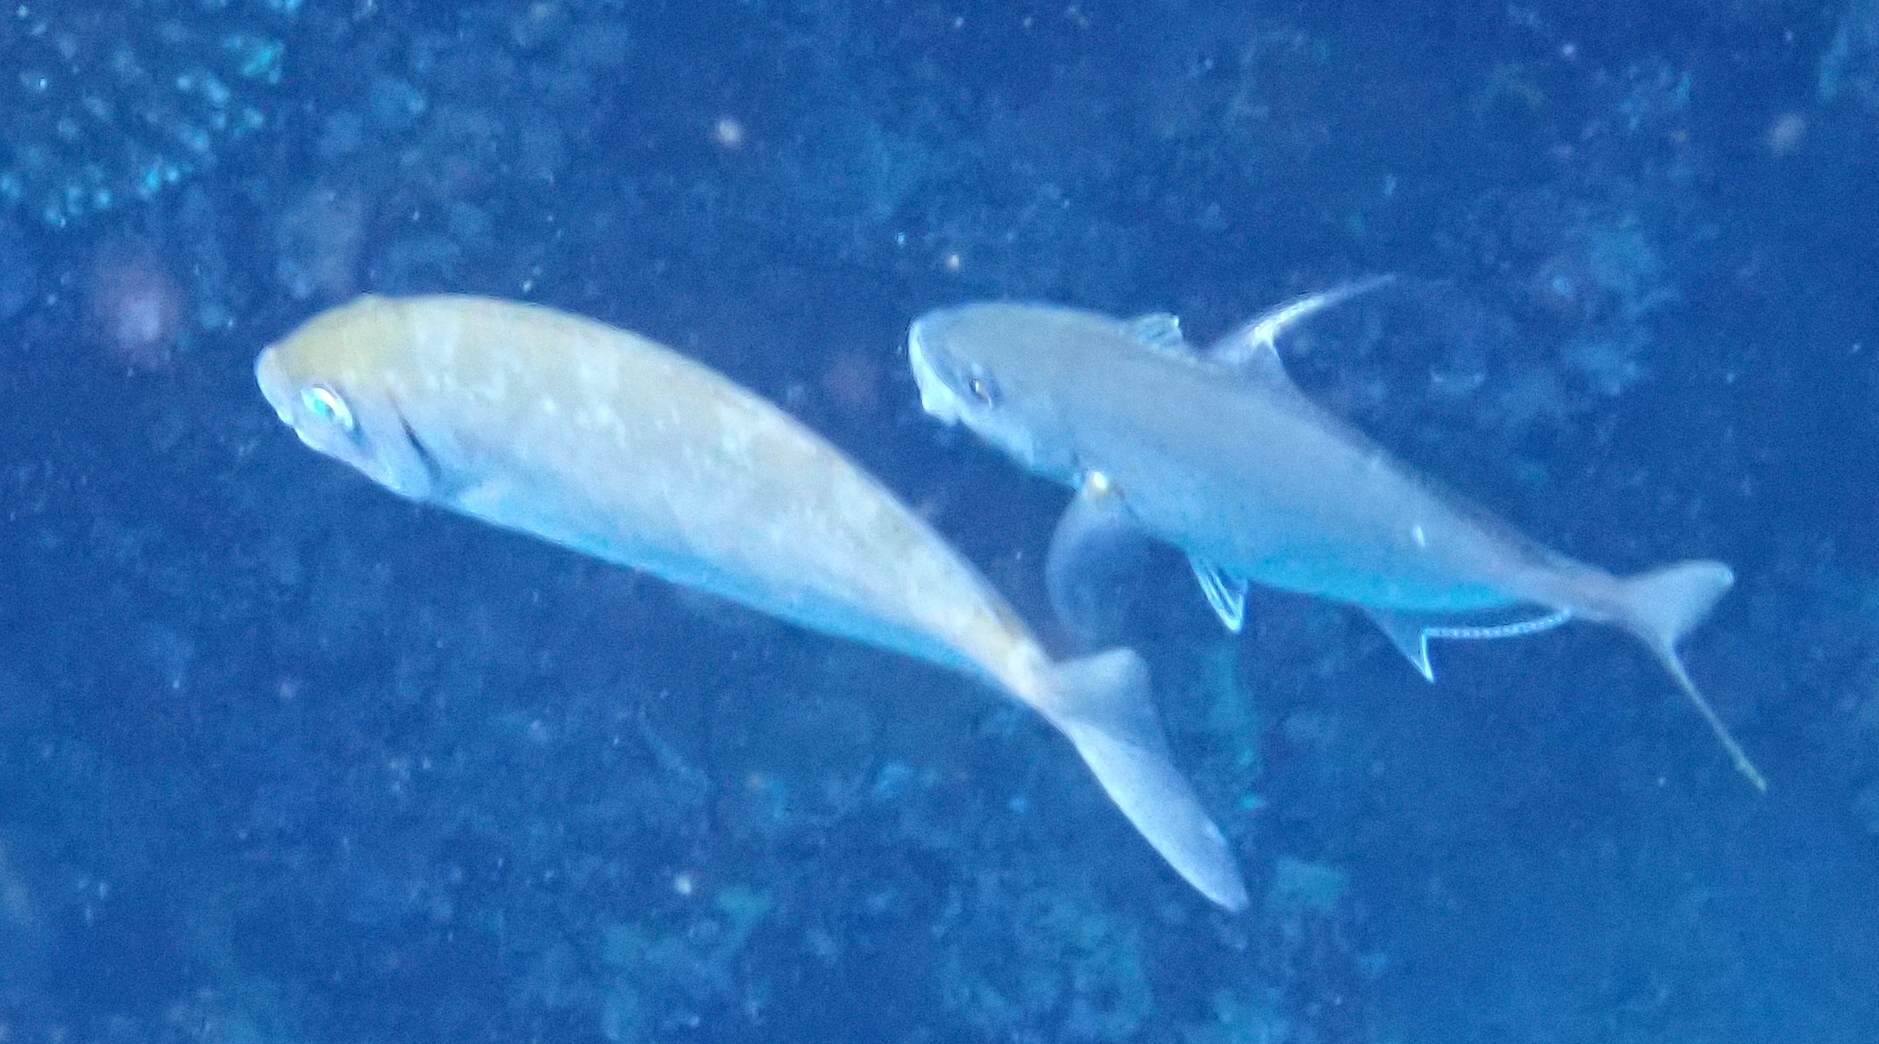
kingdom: Animalia
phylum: Chordata
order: Perciformes
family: Siganidae
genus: Siganus
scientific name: Siganus rivulatus
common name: Marbled spinefoot
